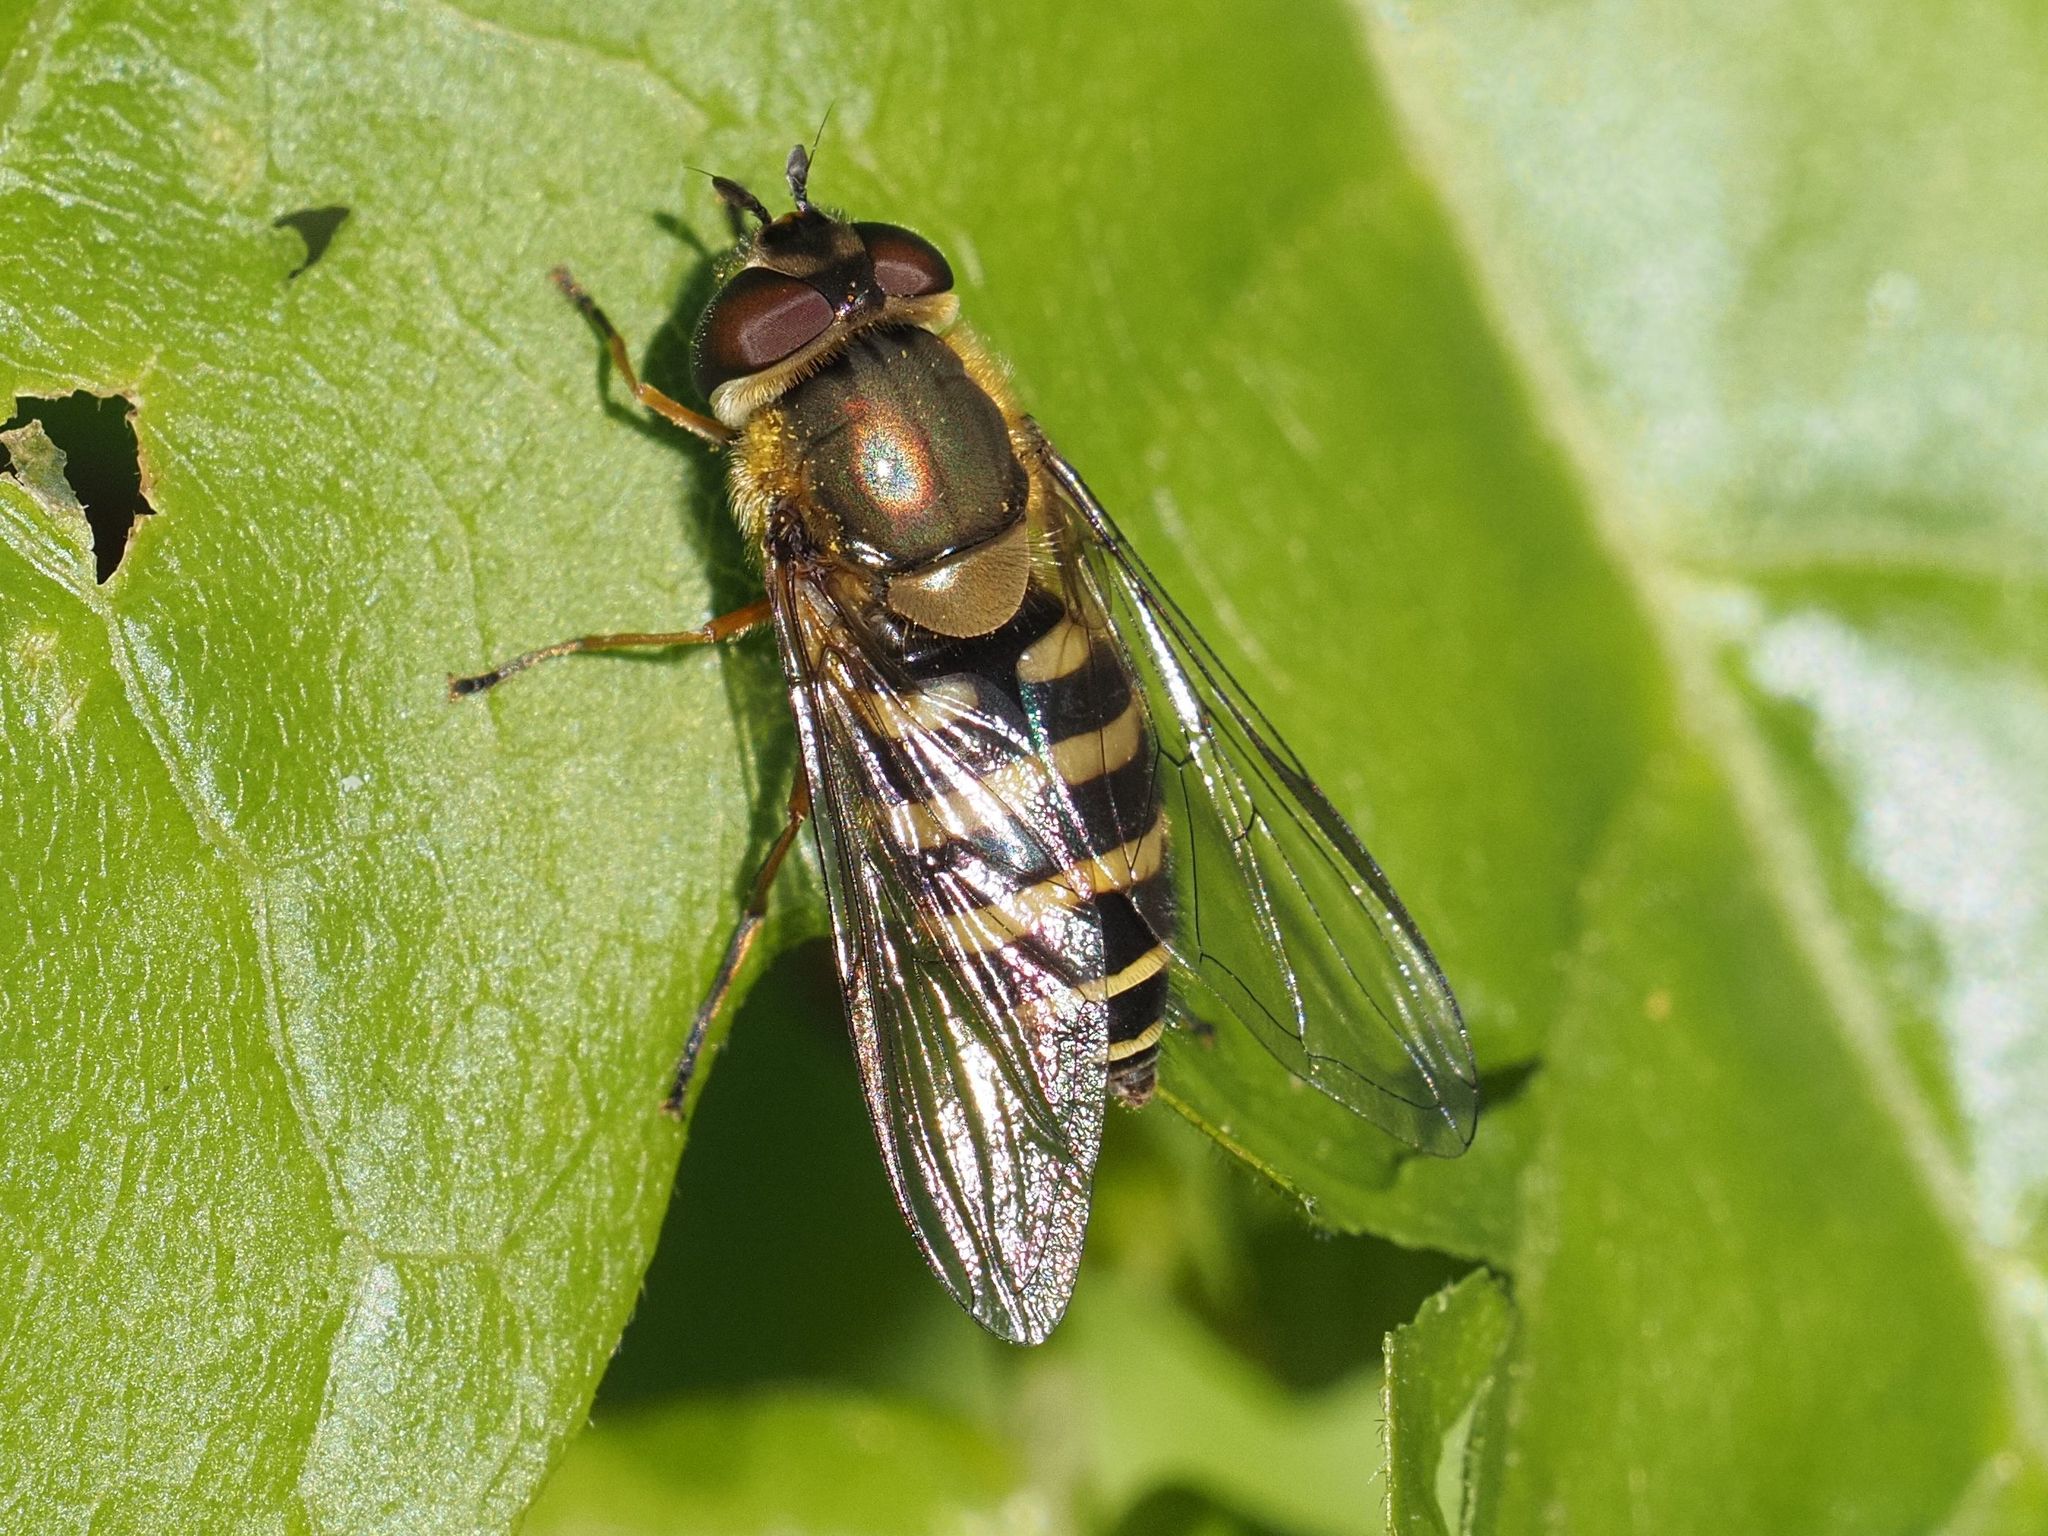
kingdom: Animalia
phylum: Arthropoda
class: Insecta
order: Diptera
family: Syrphidae
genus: Syrphus
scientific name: Syrphus torvus
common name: Hairy-eyed flower fly
